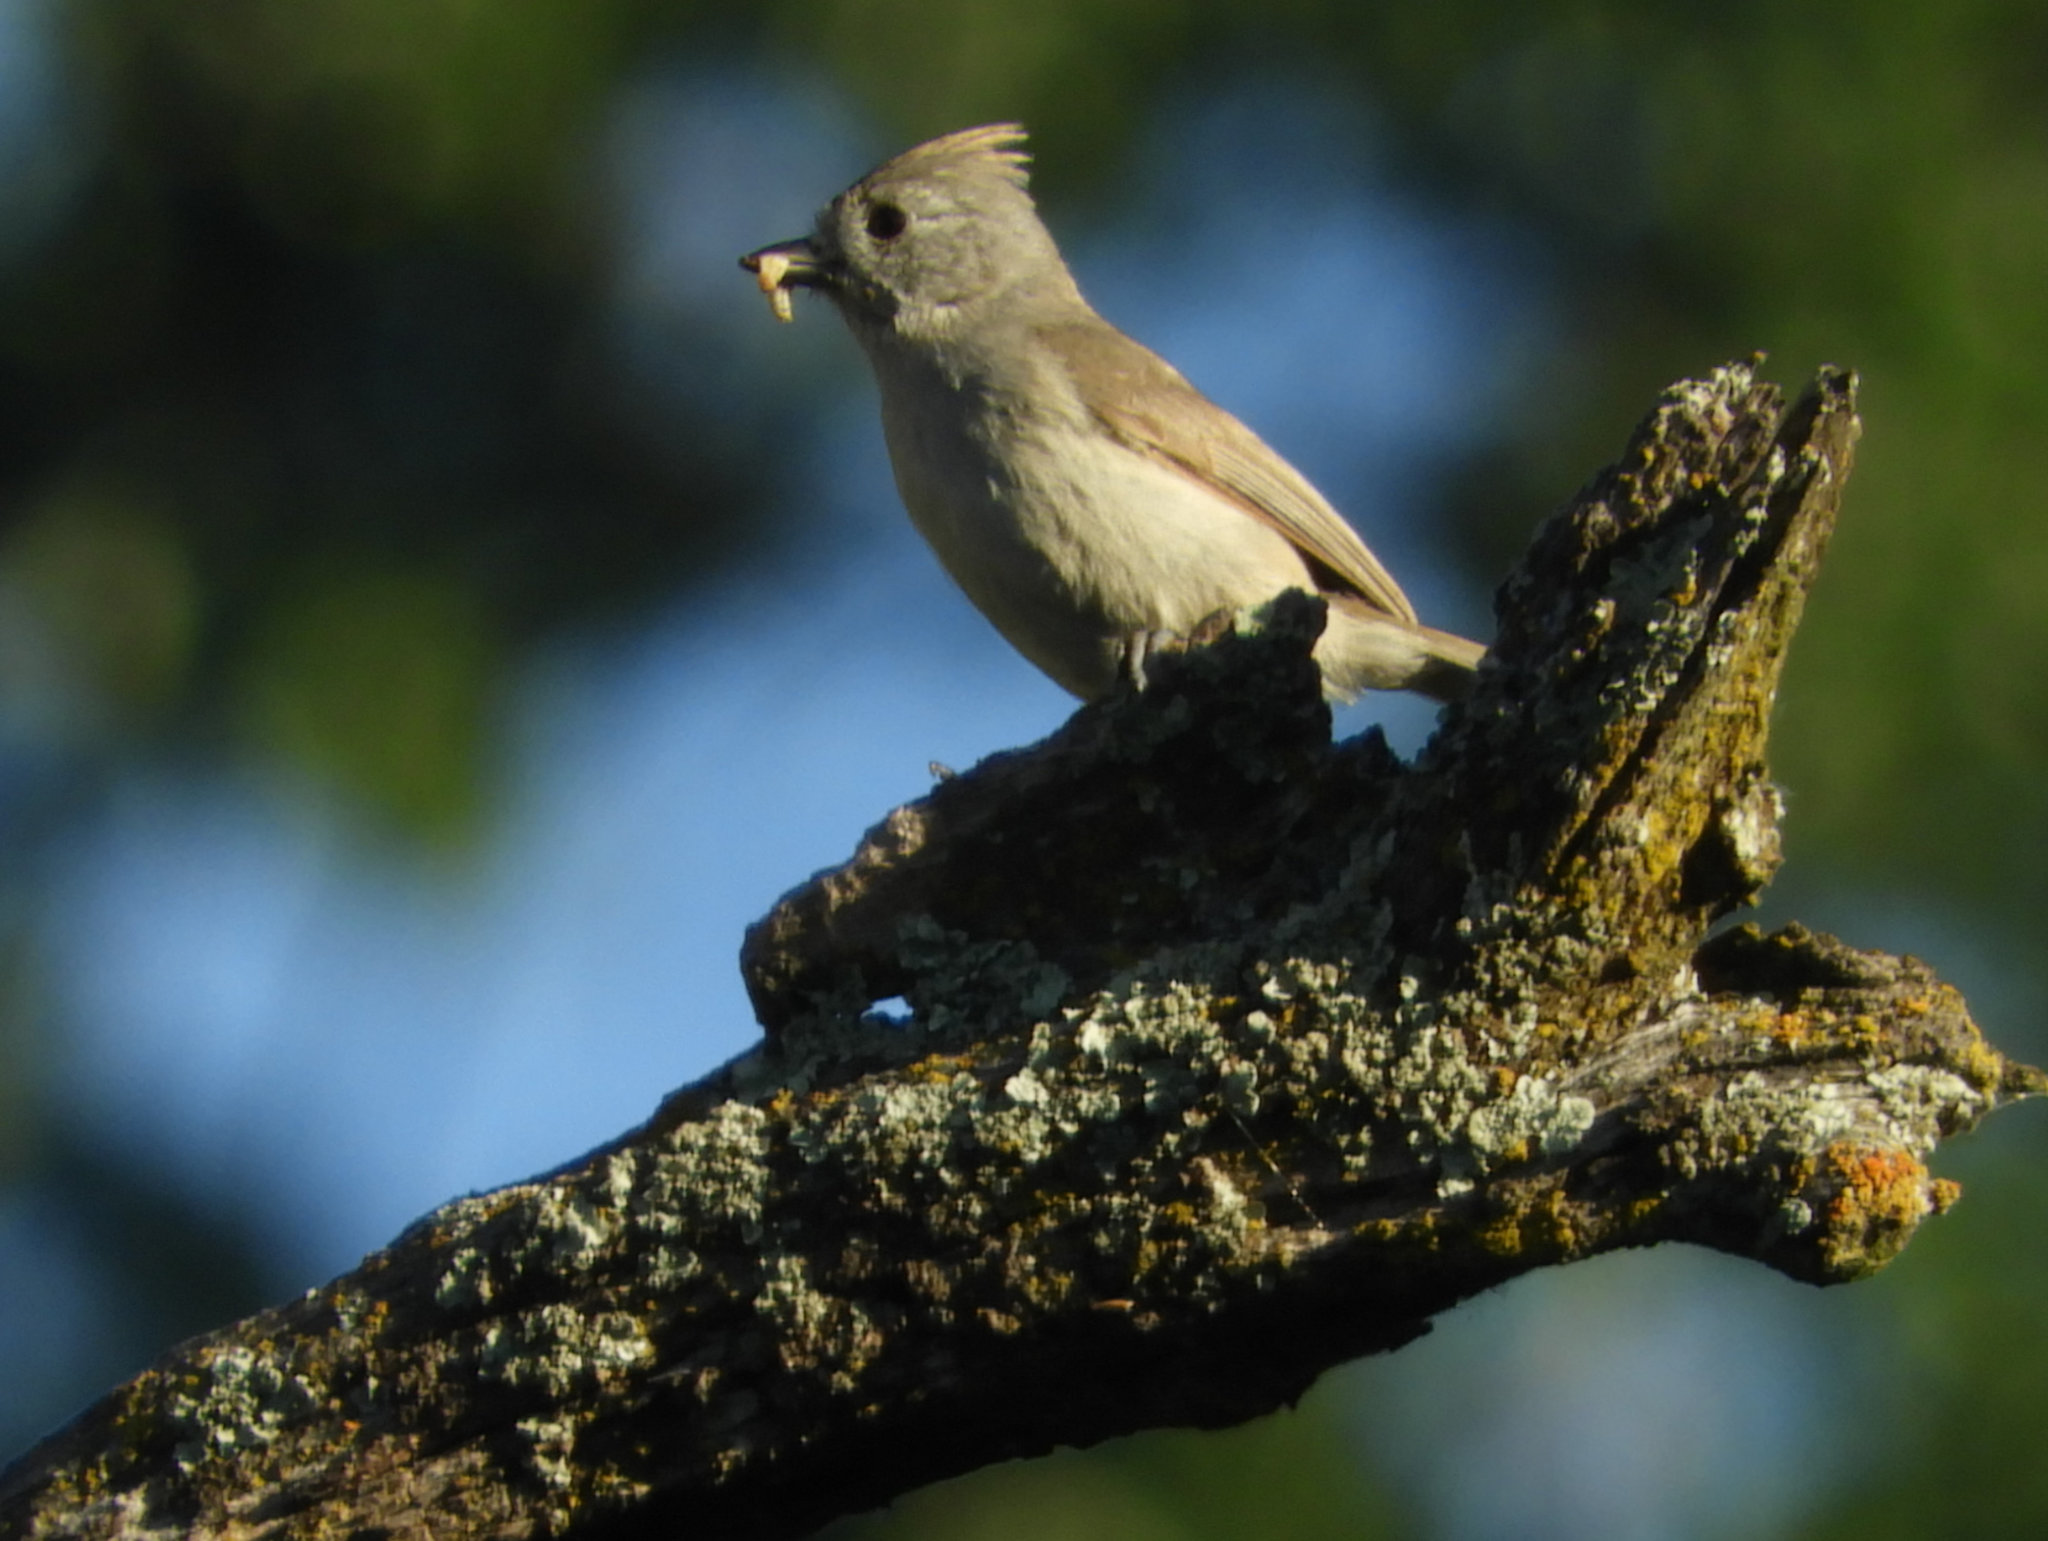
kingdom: Animalia
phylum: Chordata
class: Aves
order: Passeriformes
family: Paridae
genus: Baeolophus
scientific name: Baeolophus inornatus
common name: Oak titmouse
